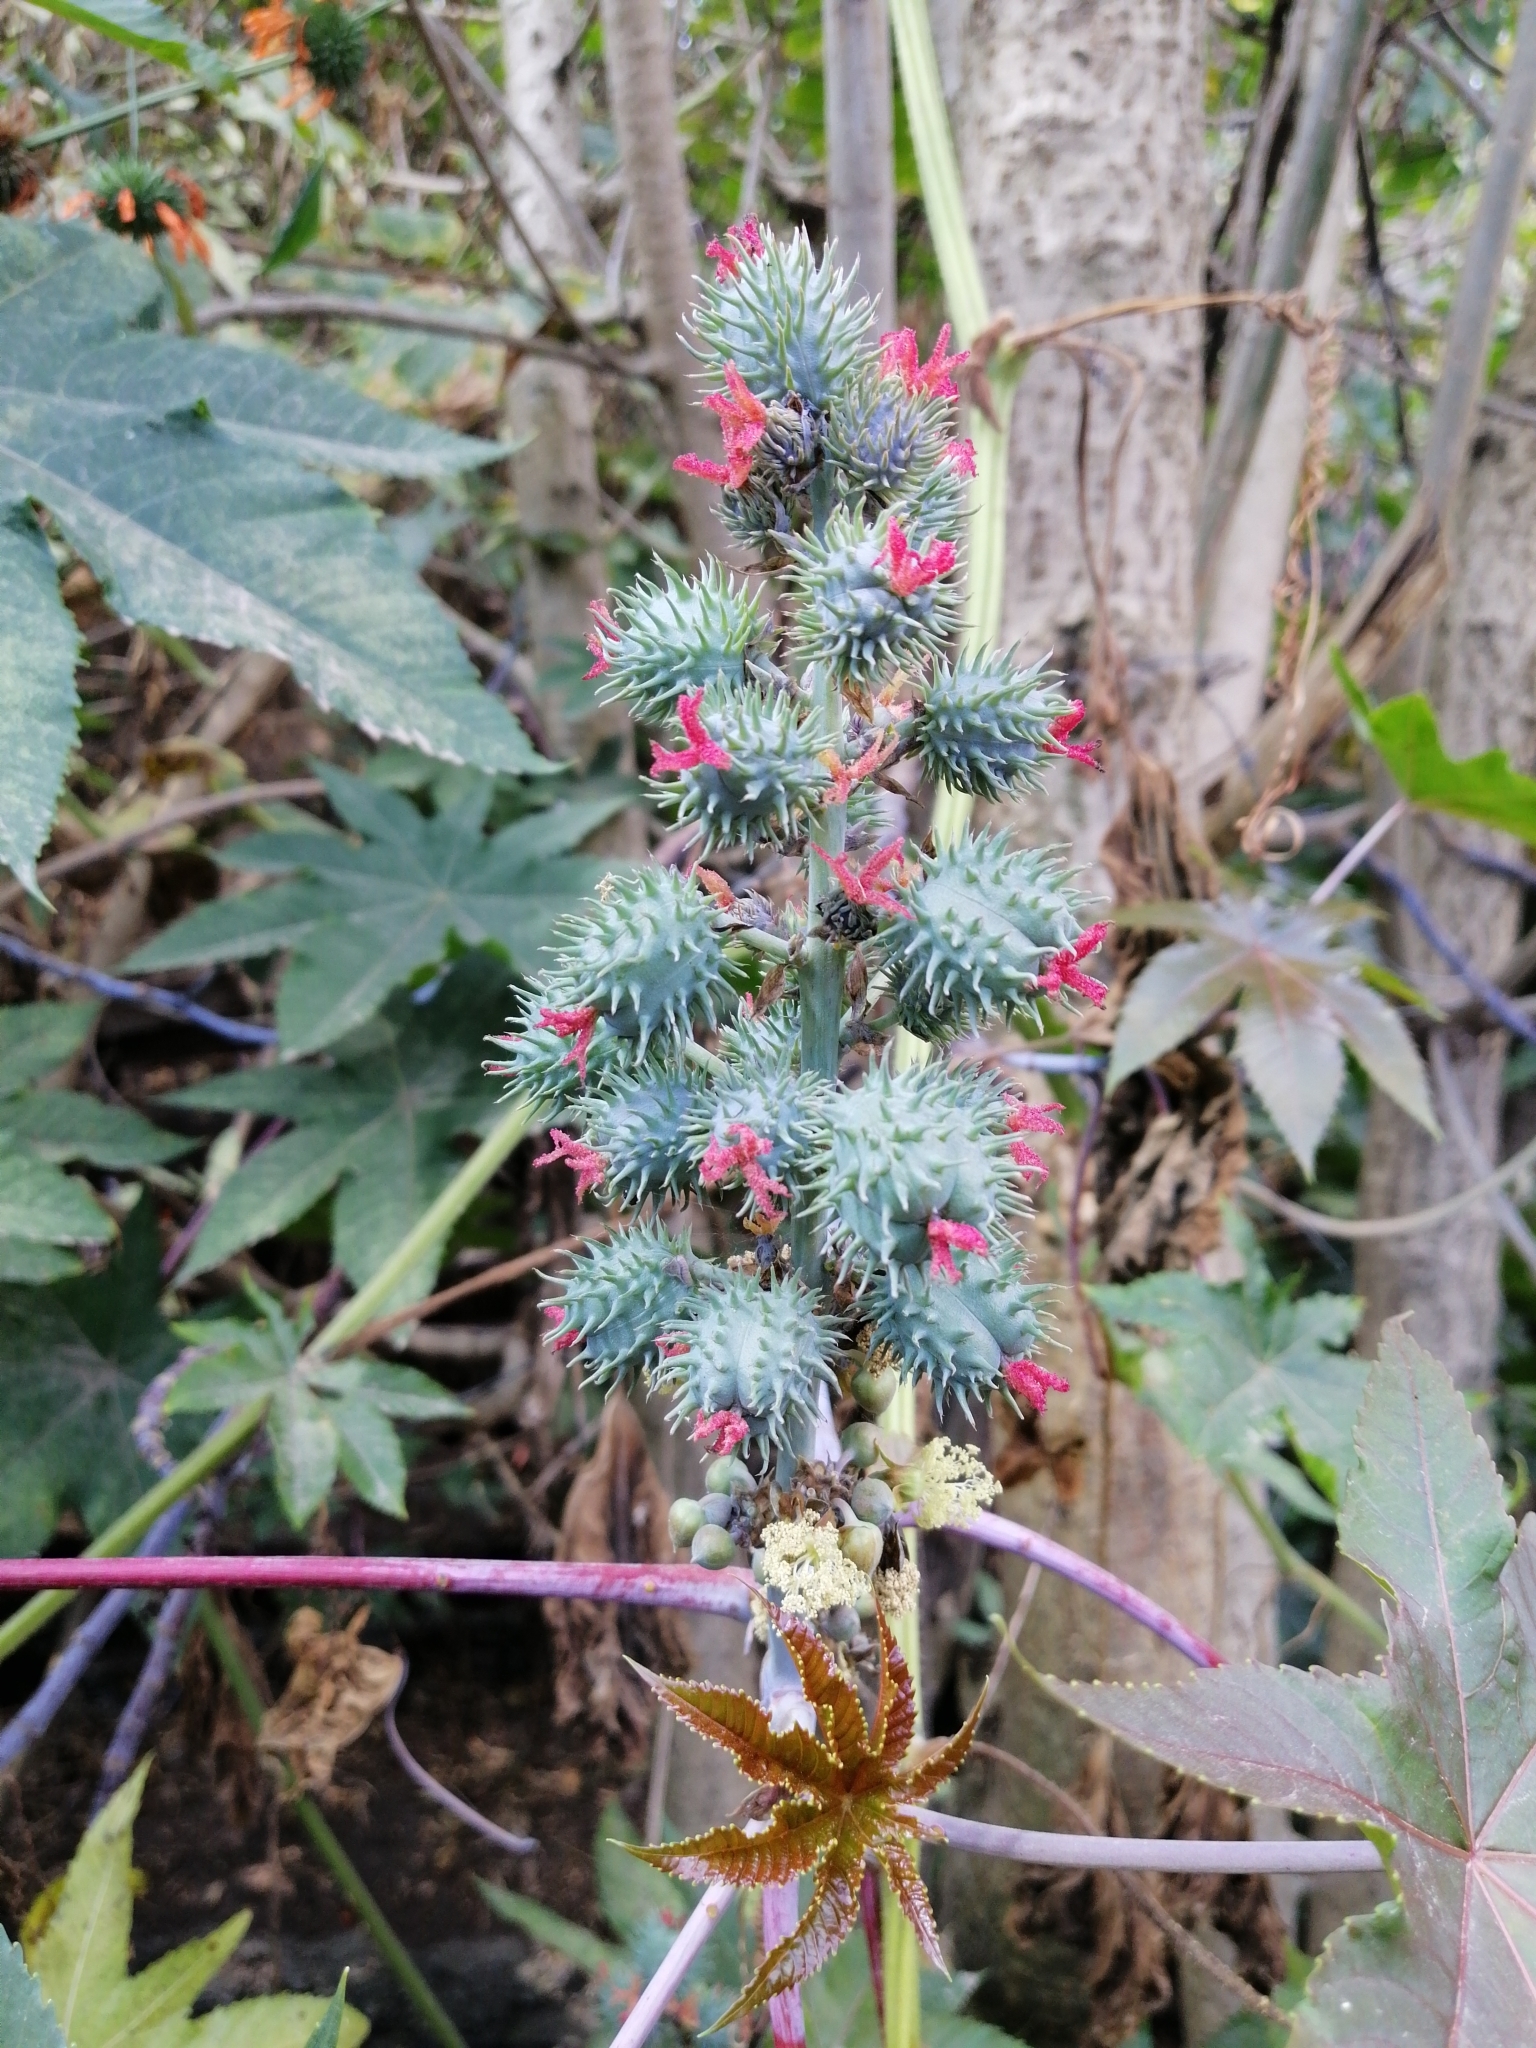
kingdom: Plantae
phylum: Tracheophyta
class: Magnoliopsida
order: Malpighiales
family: Euphorbiaceae
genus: Ricinus
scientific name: Ricinus communis
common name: Castor-oil-plant
